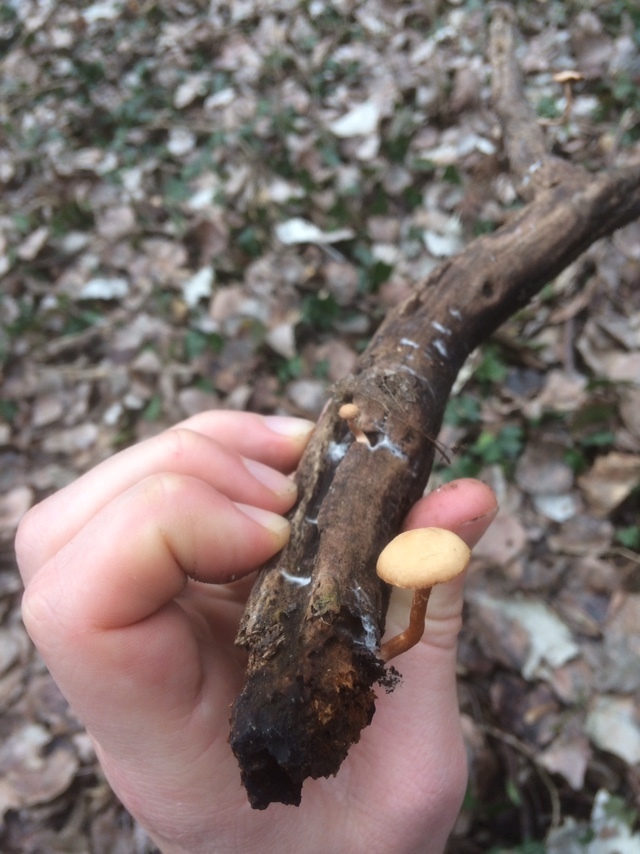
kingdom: Fungi
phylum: Basidiomycota
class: Agaricomycetes
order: Agaricales
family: Tubariaceae
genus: Tubaria
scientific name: Tubaria furfuracea
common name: Scurfy twiglet
